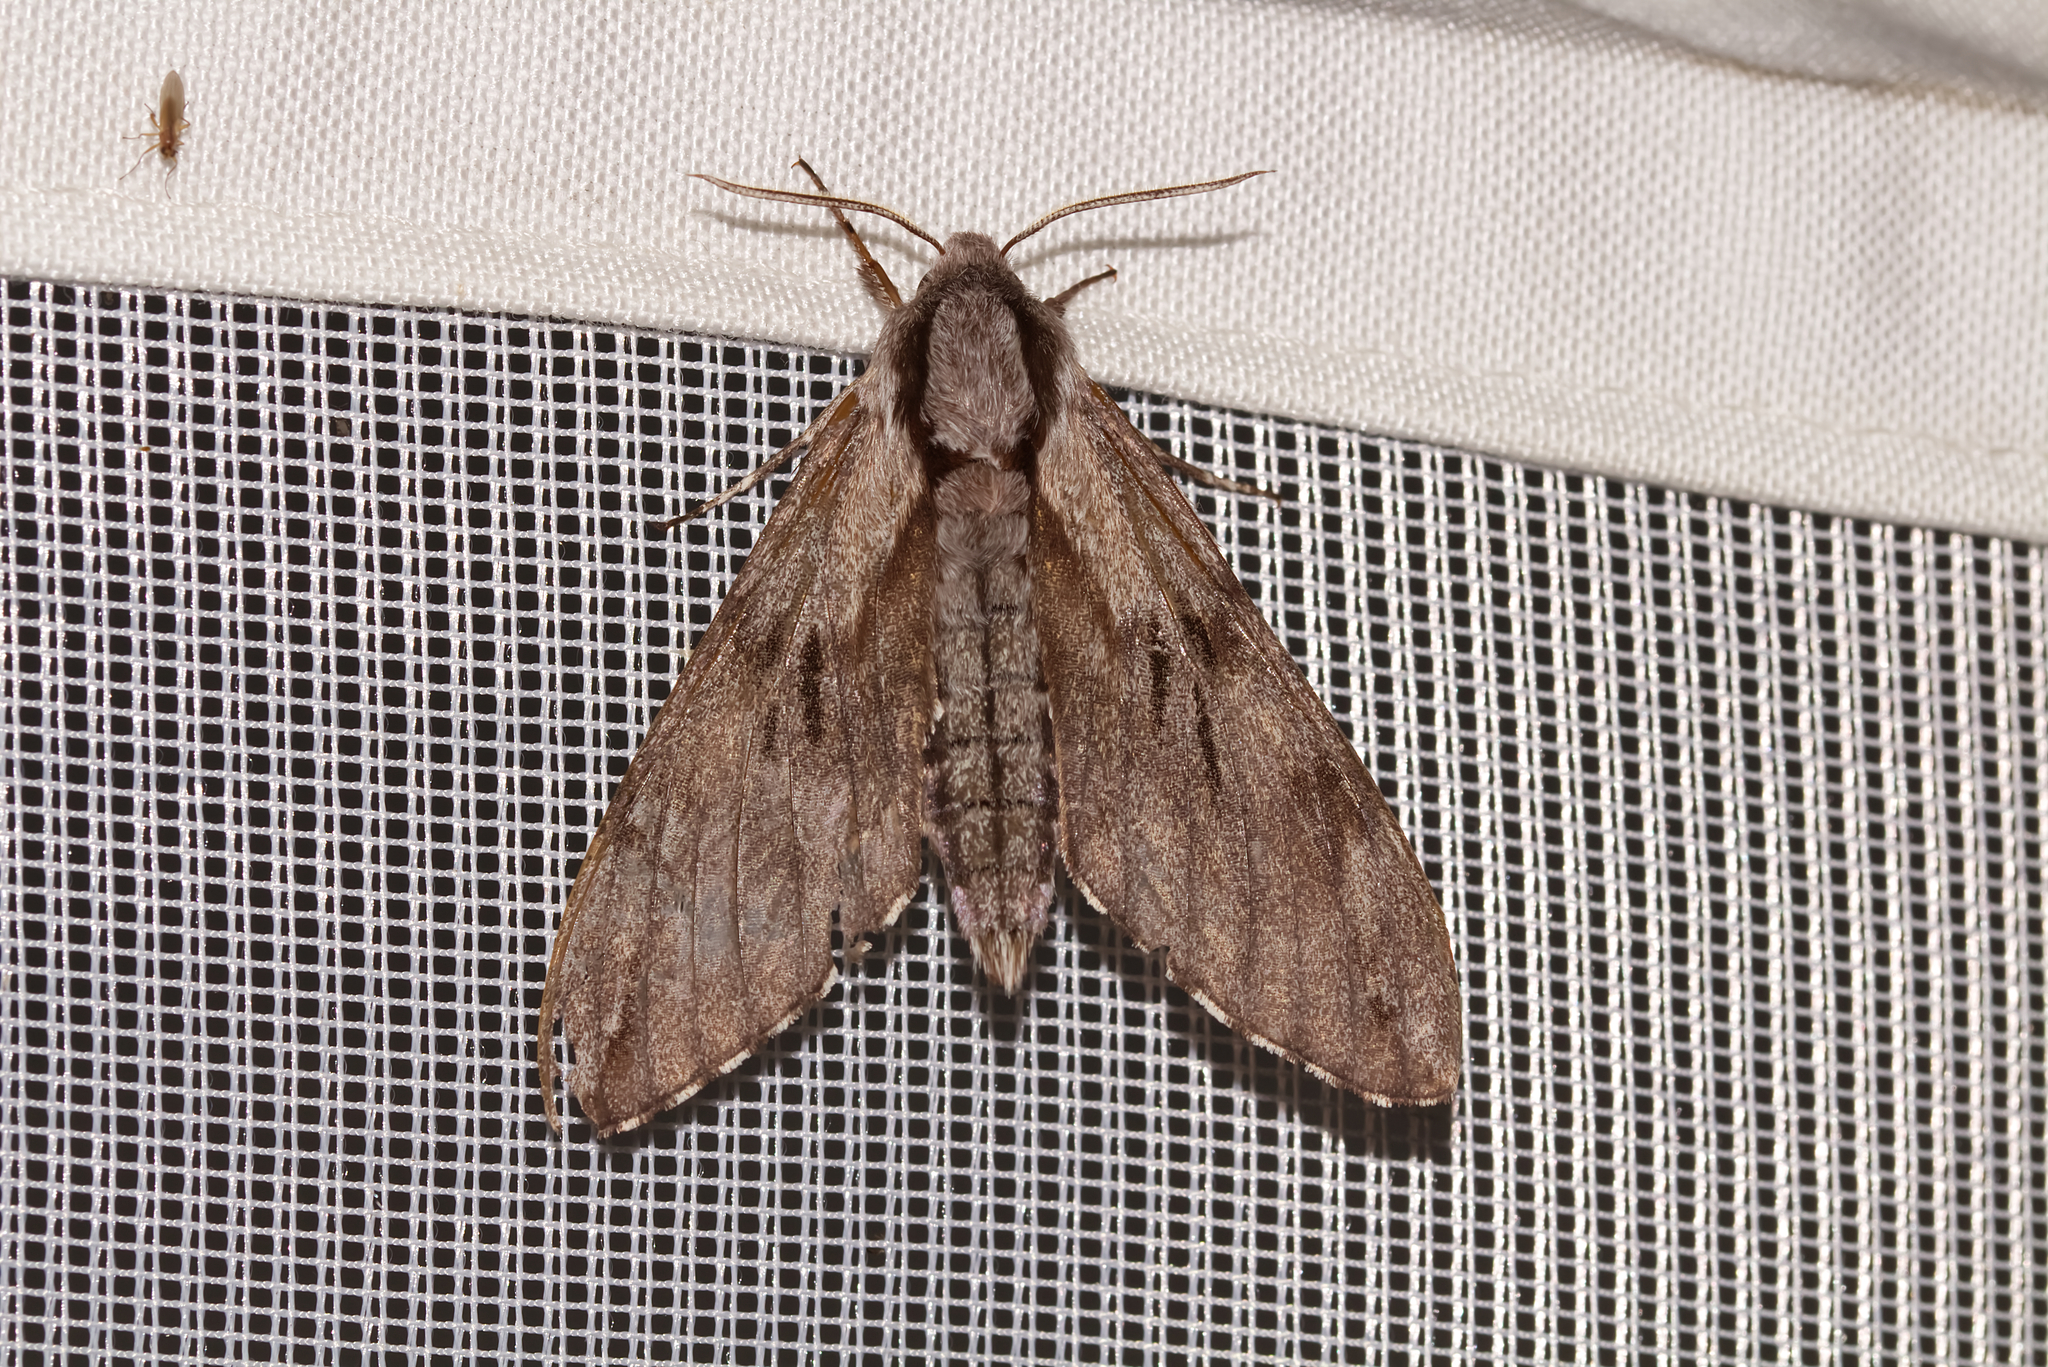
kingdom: Animalia
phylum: Arthropoda
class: Insecta
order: Lepidoptera
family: Sphingidae
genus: Sphinx
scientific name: Sphinx pinastri
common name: Pine hawk-moth
